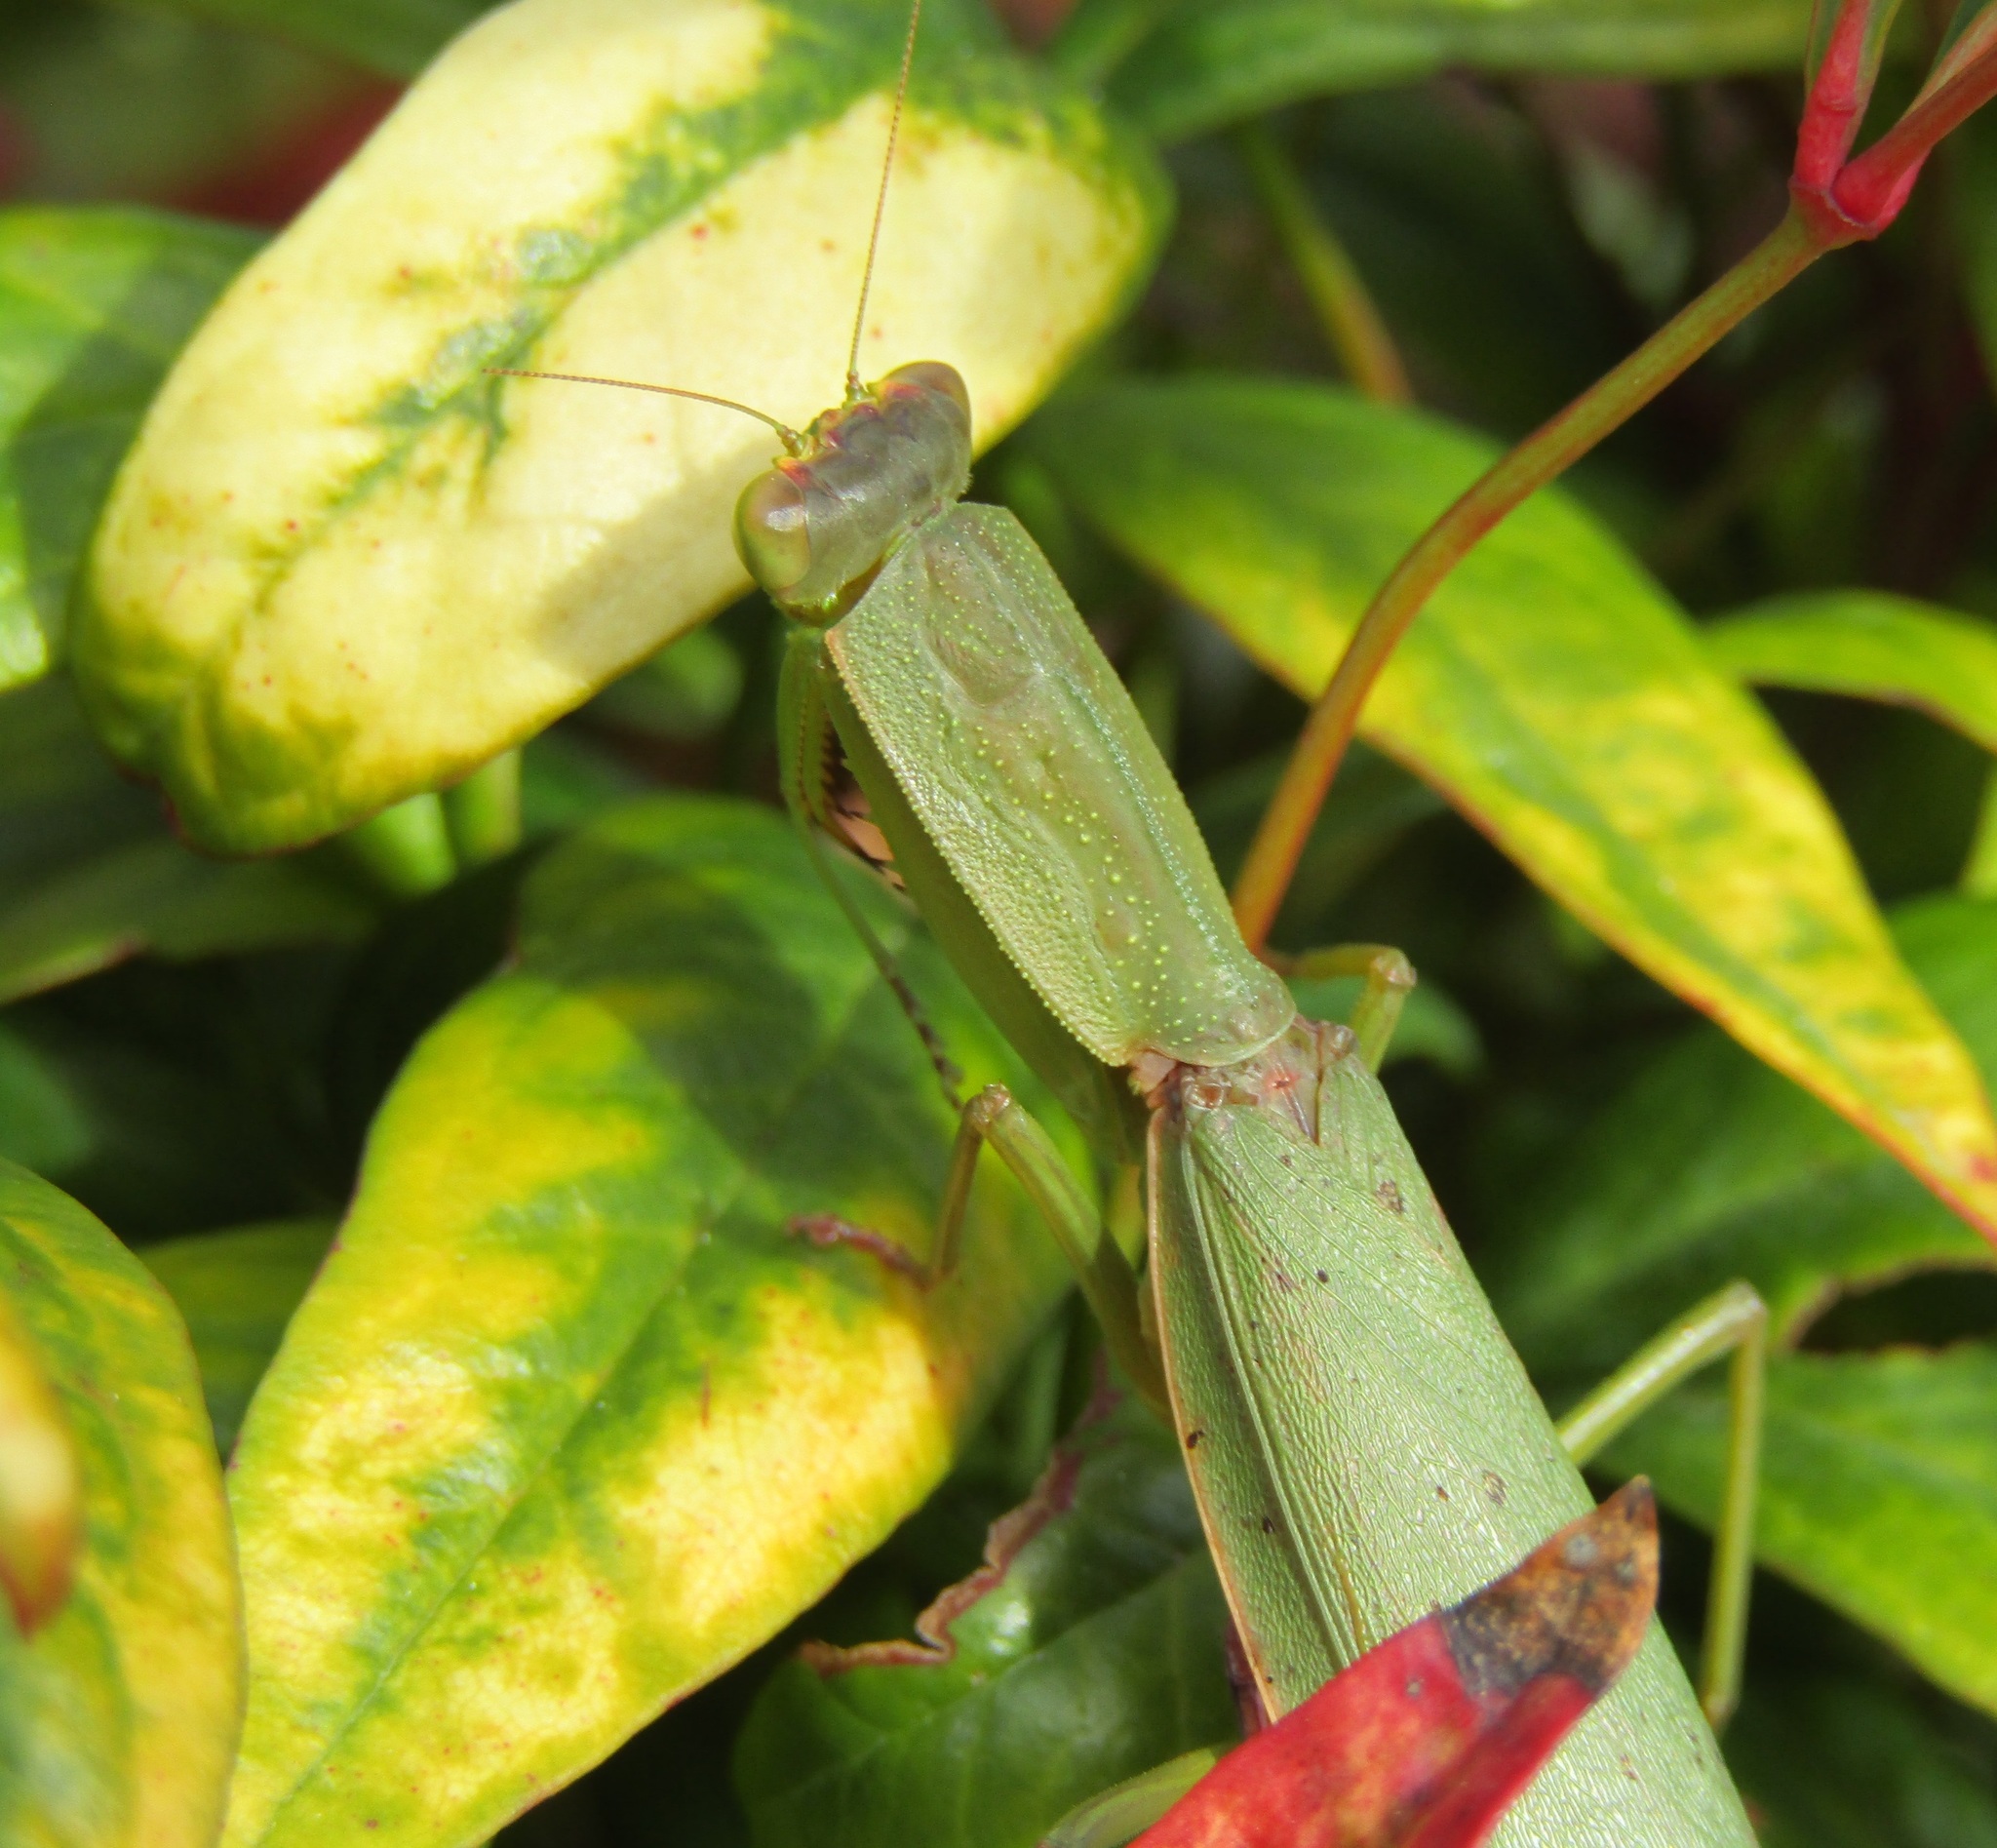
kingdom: Animalia
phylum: Arthropoda
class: Insecta
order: Mantodea
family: Mantidae
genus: Orthodera
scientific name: Orthodera novaezealandiae
